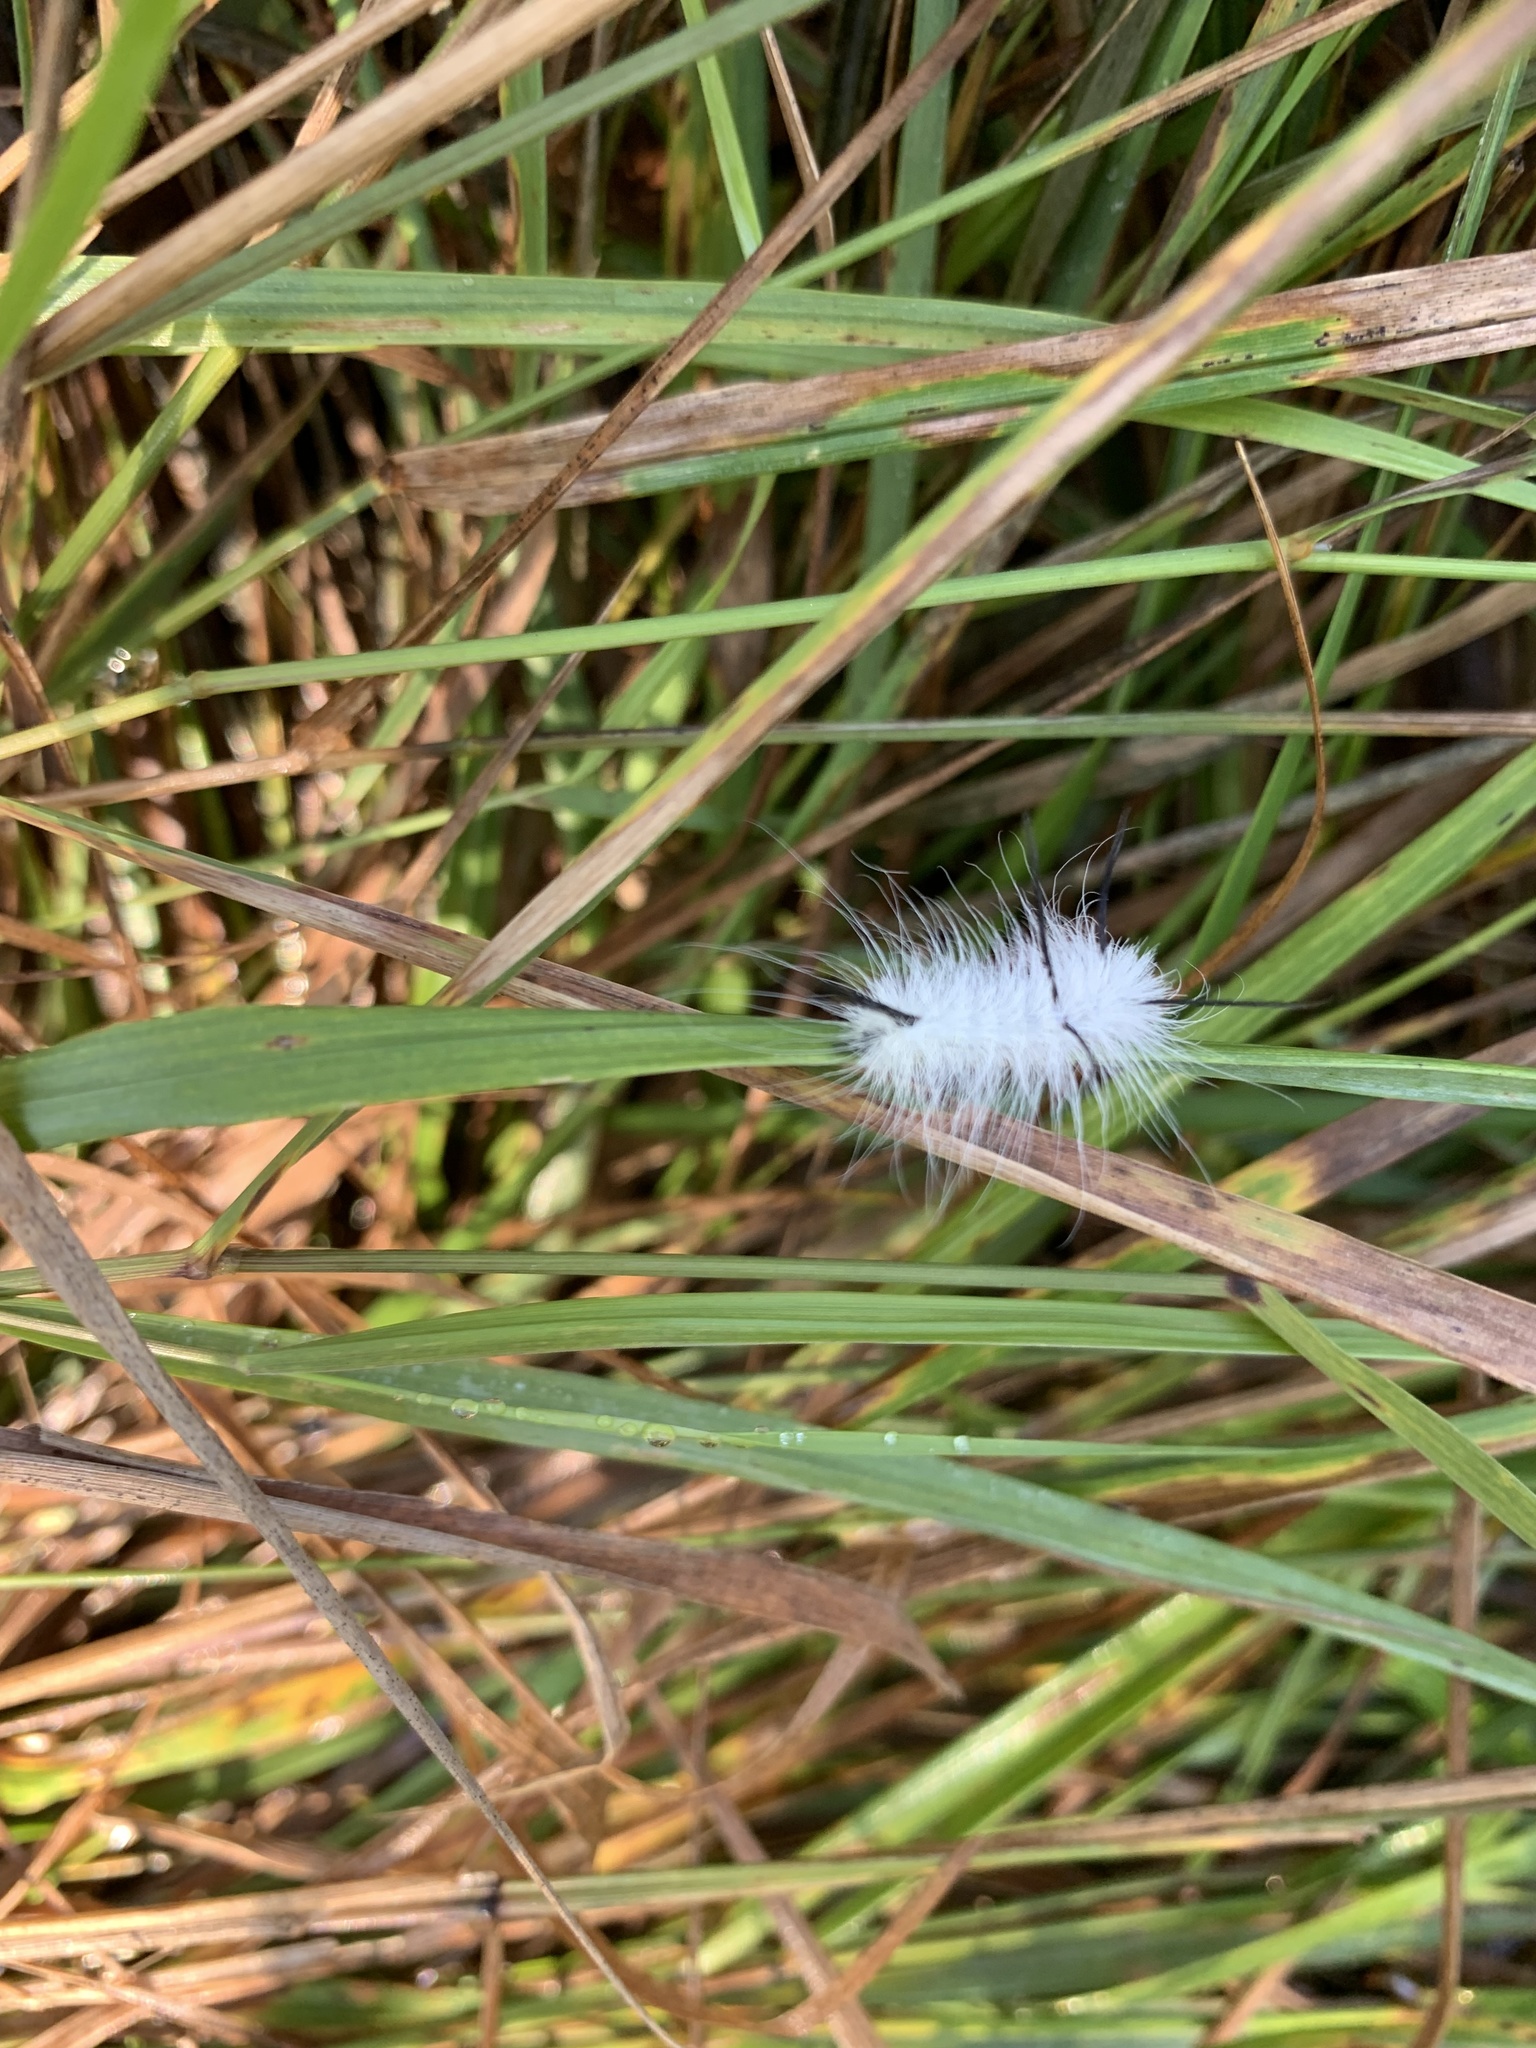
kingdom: Animalia
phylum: Arthropoda
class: Insecta
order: Lepidoptera
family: Noctuidae
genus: Acronicta
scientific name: Acronicta americana
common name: American dagger
